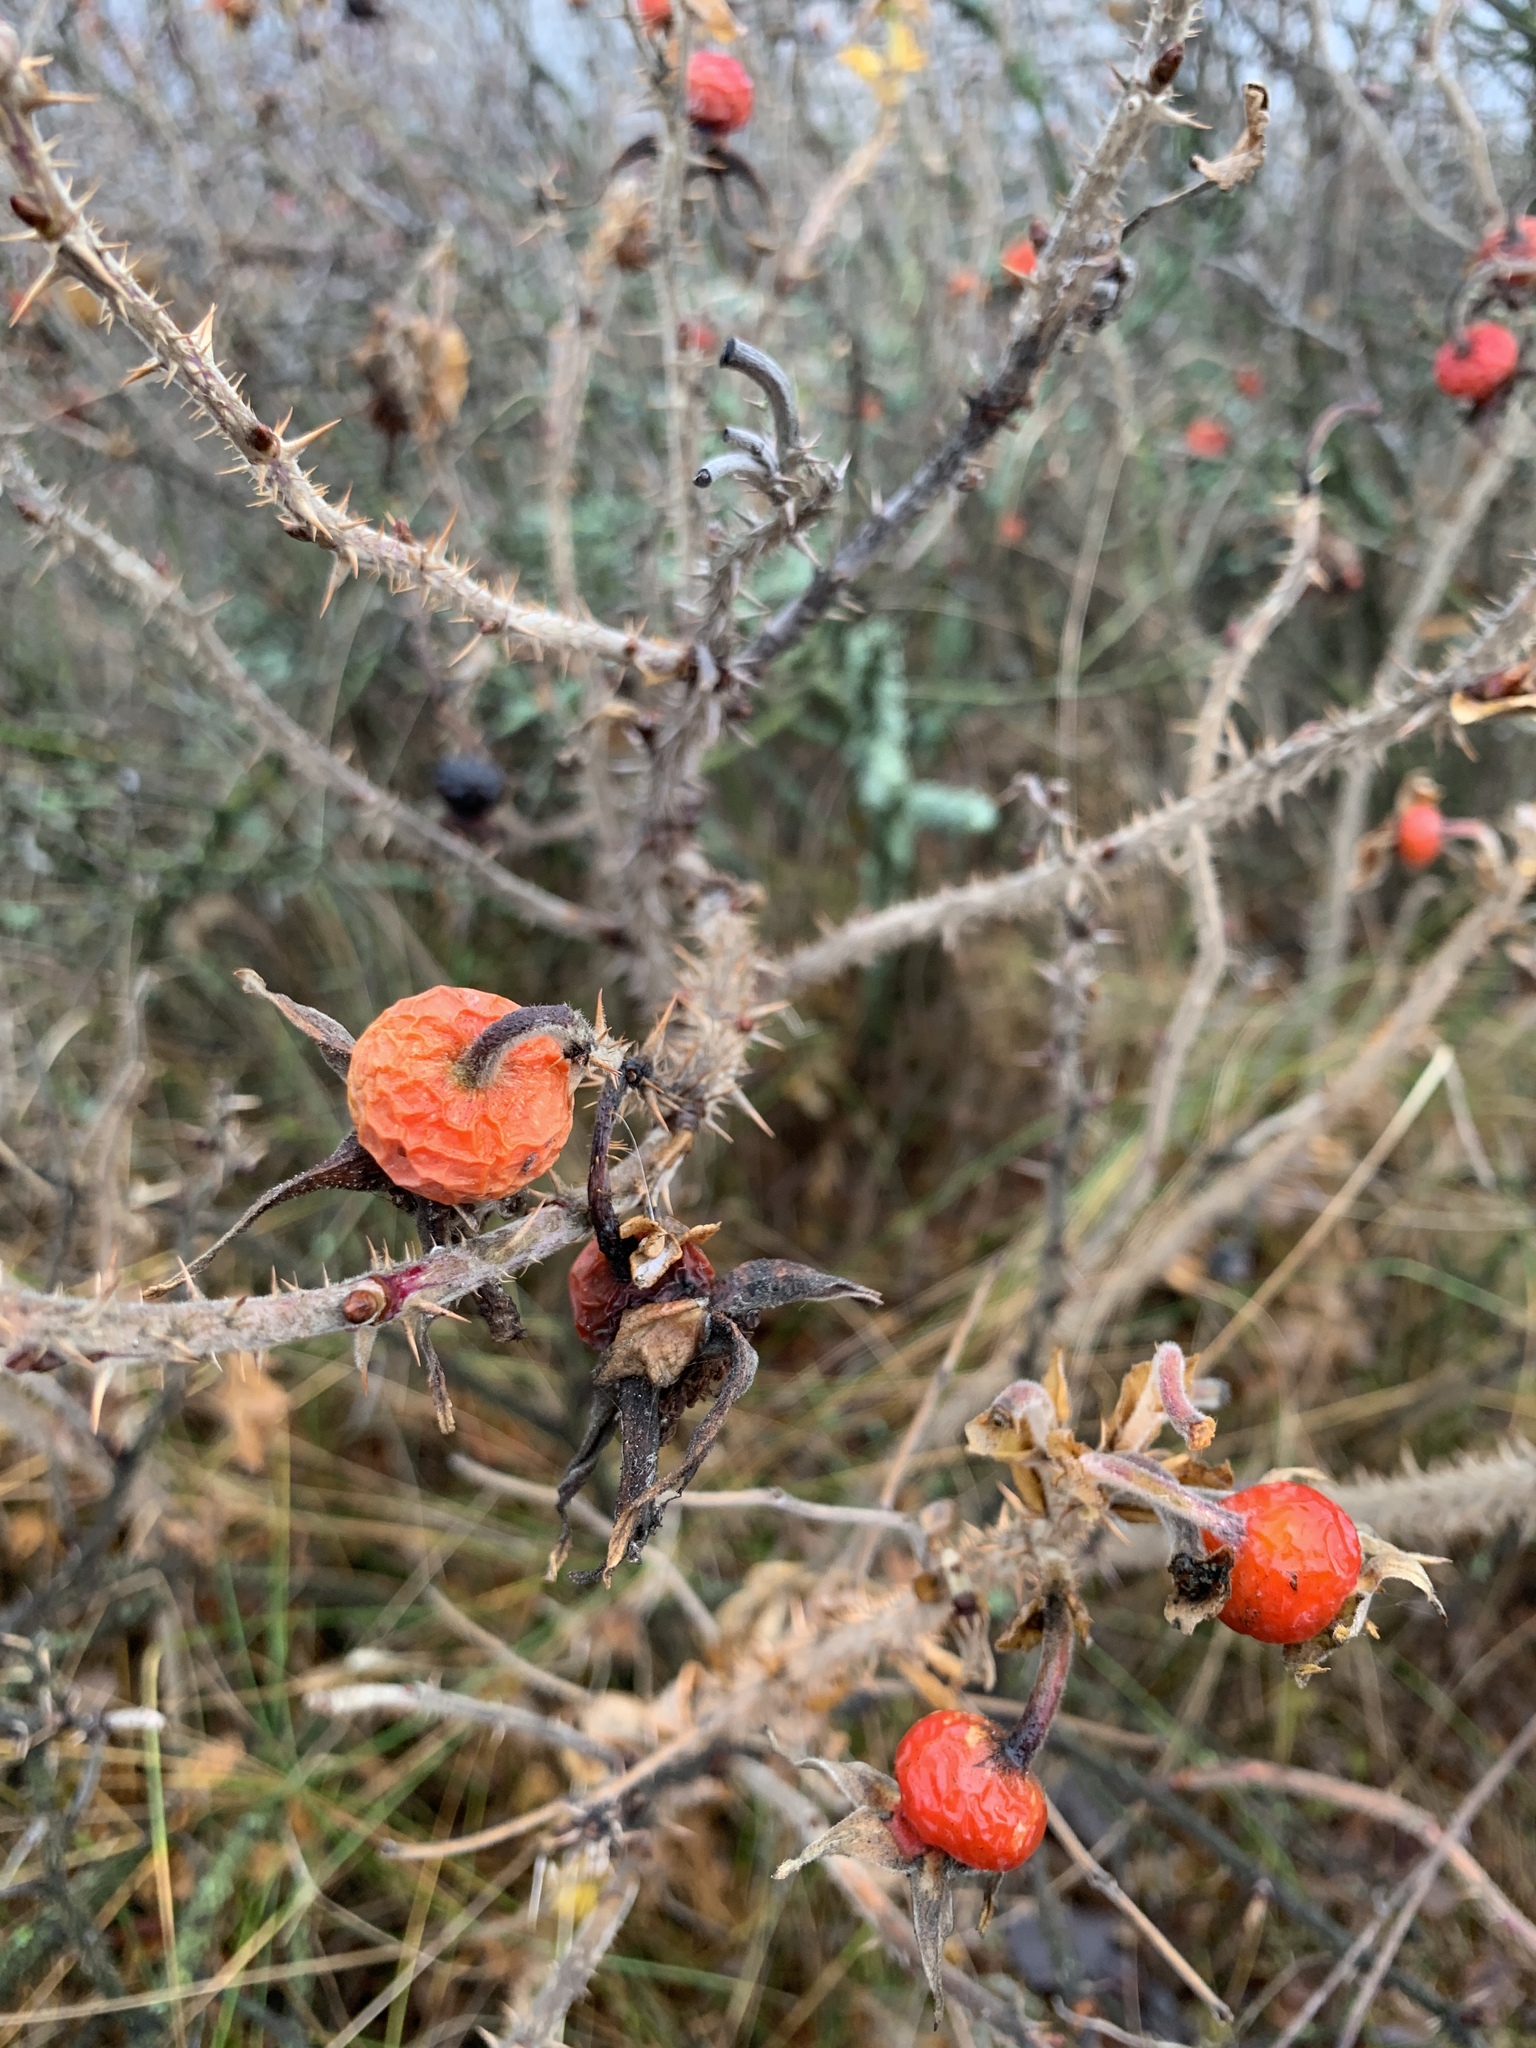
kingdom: Plantae
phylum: Tracheophyta
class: Magnoliopsida
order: Rosales
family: Rosaceae
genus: Rosa
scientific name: Rosa rugosa
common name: Japanese rose
